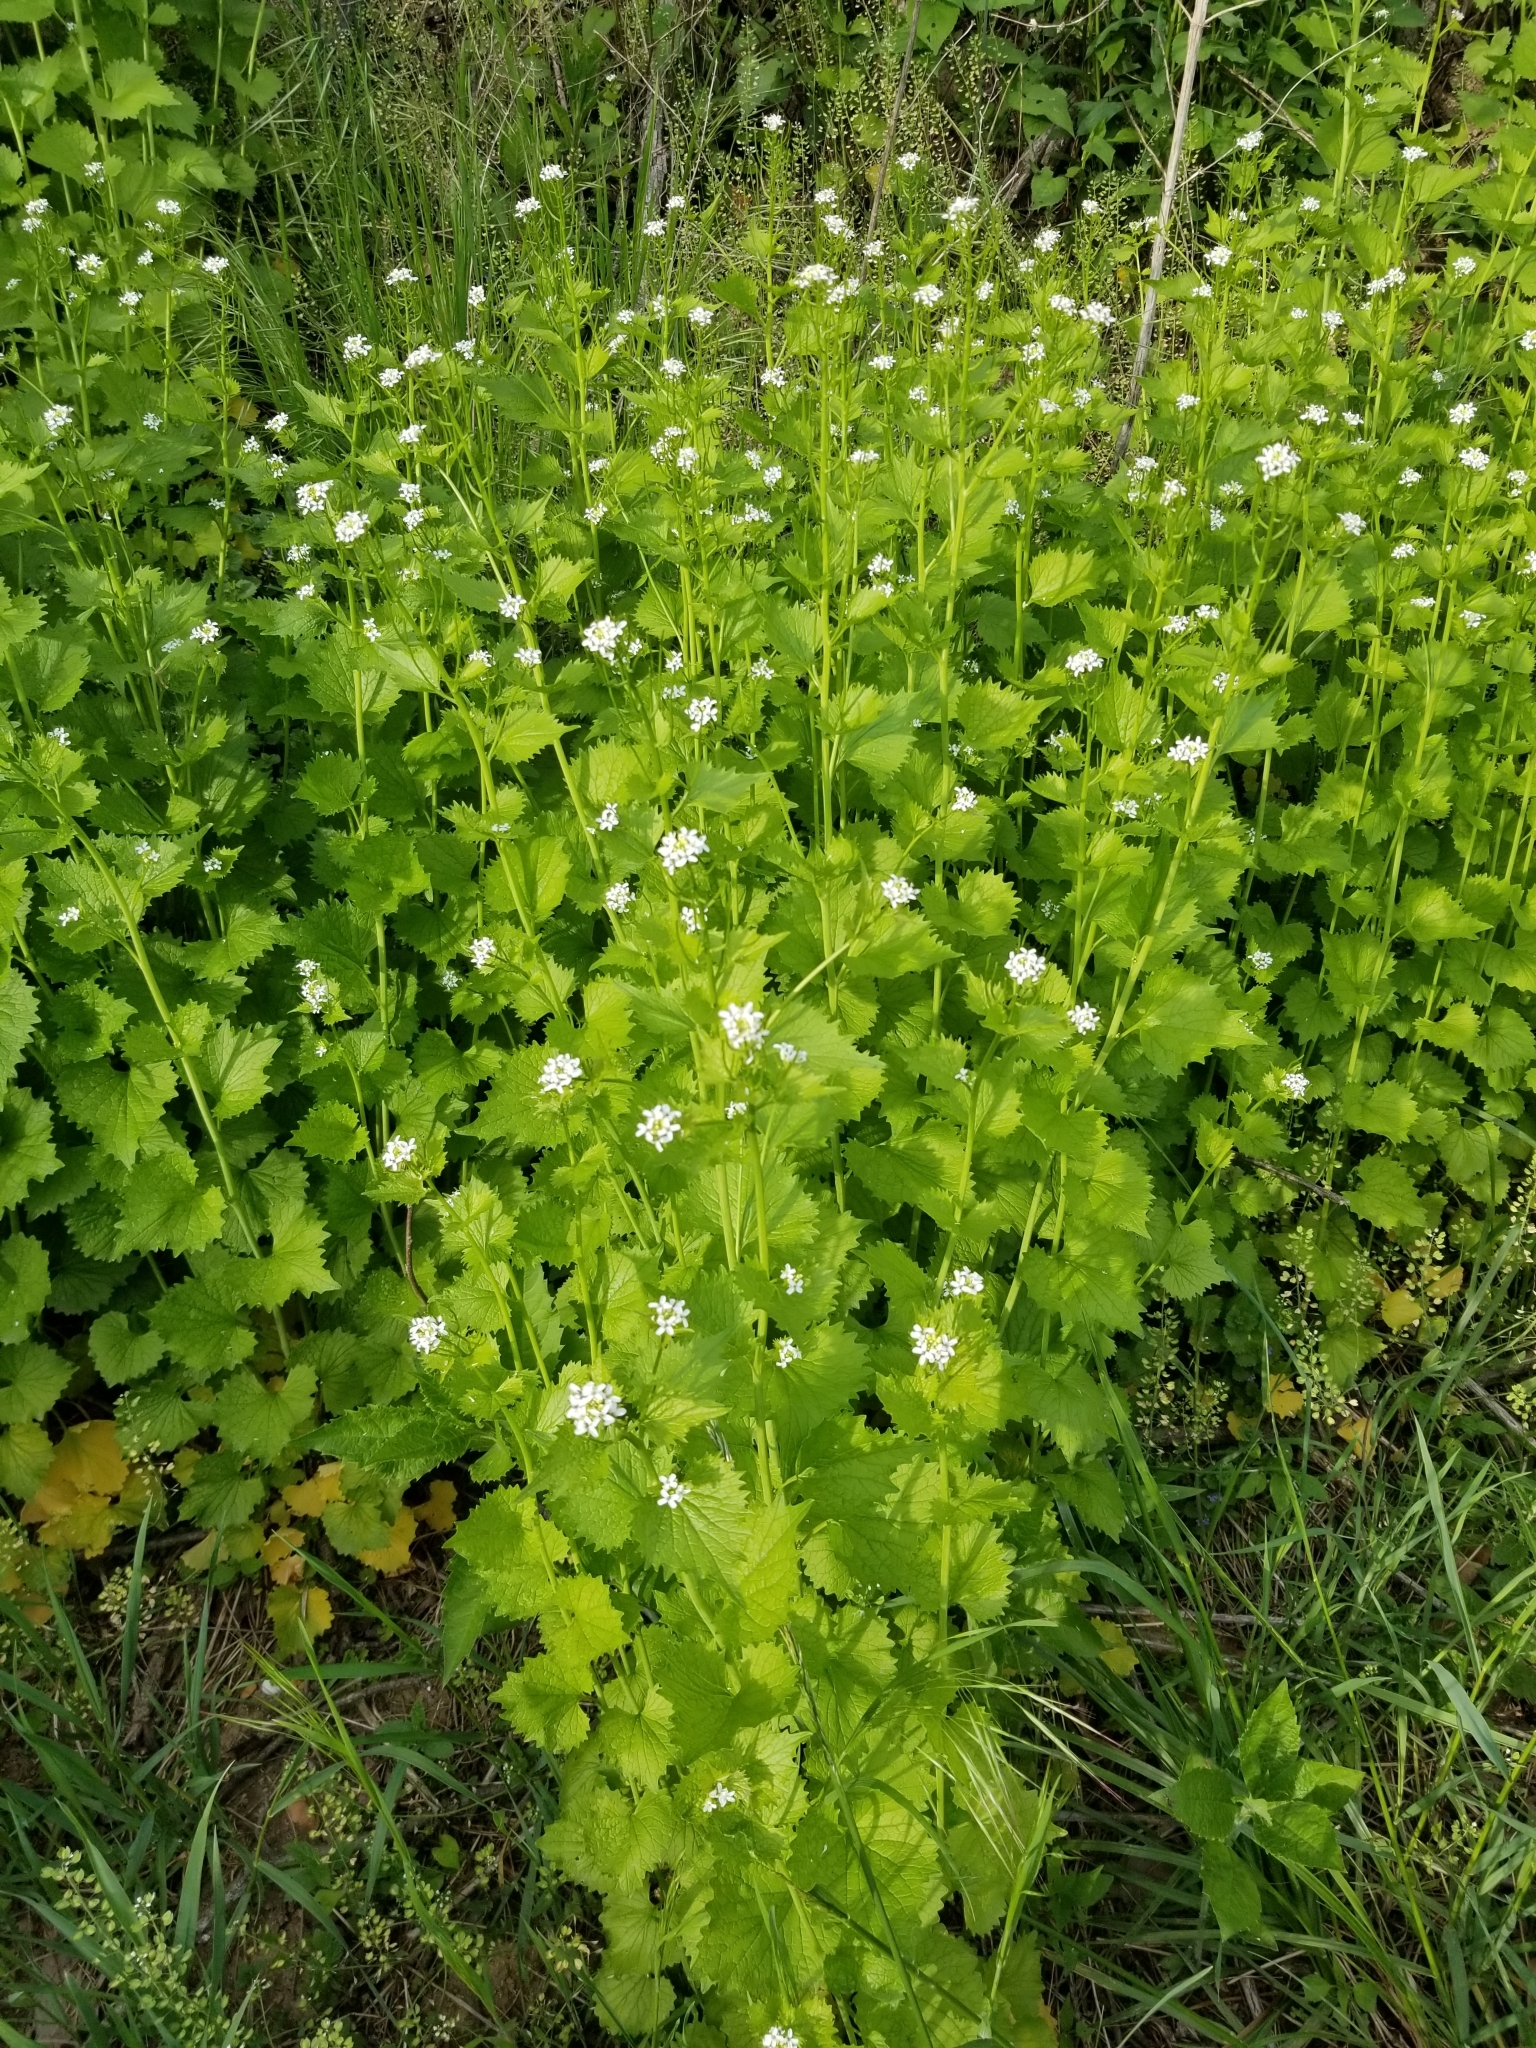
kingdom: Plantae
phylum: Tracheophyta
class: Magnoliopsida
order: Brassicales
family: Brassicaceae
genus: Alliaria
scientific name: Alliaria petiolata
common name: Garlic mustard
